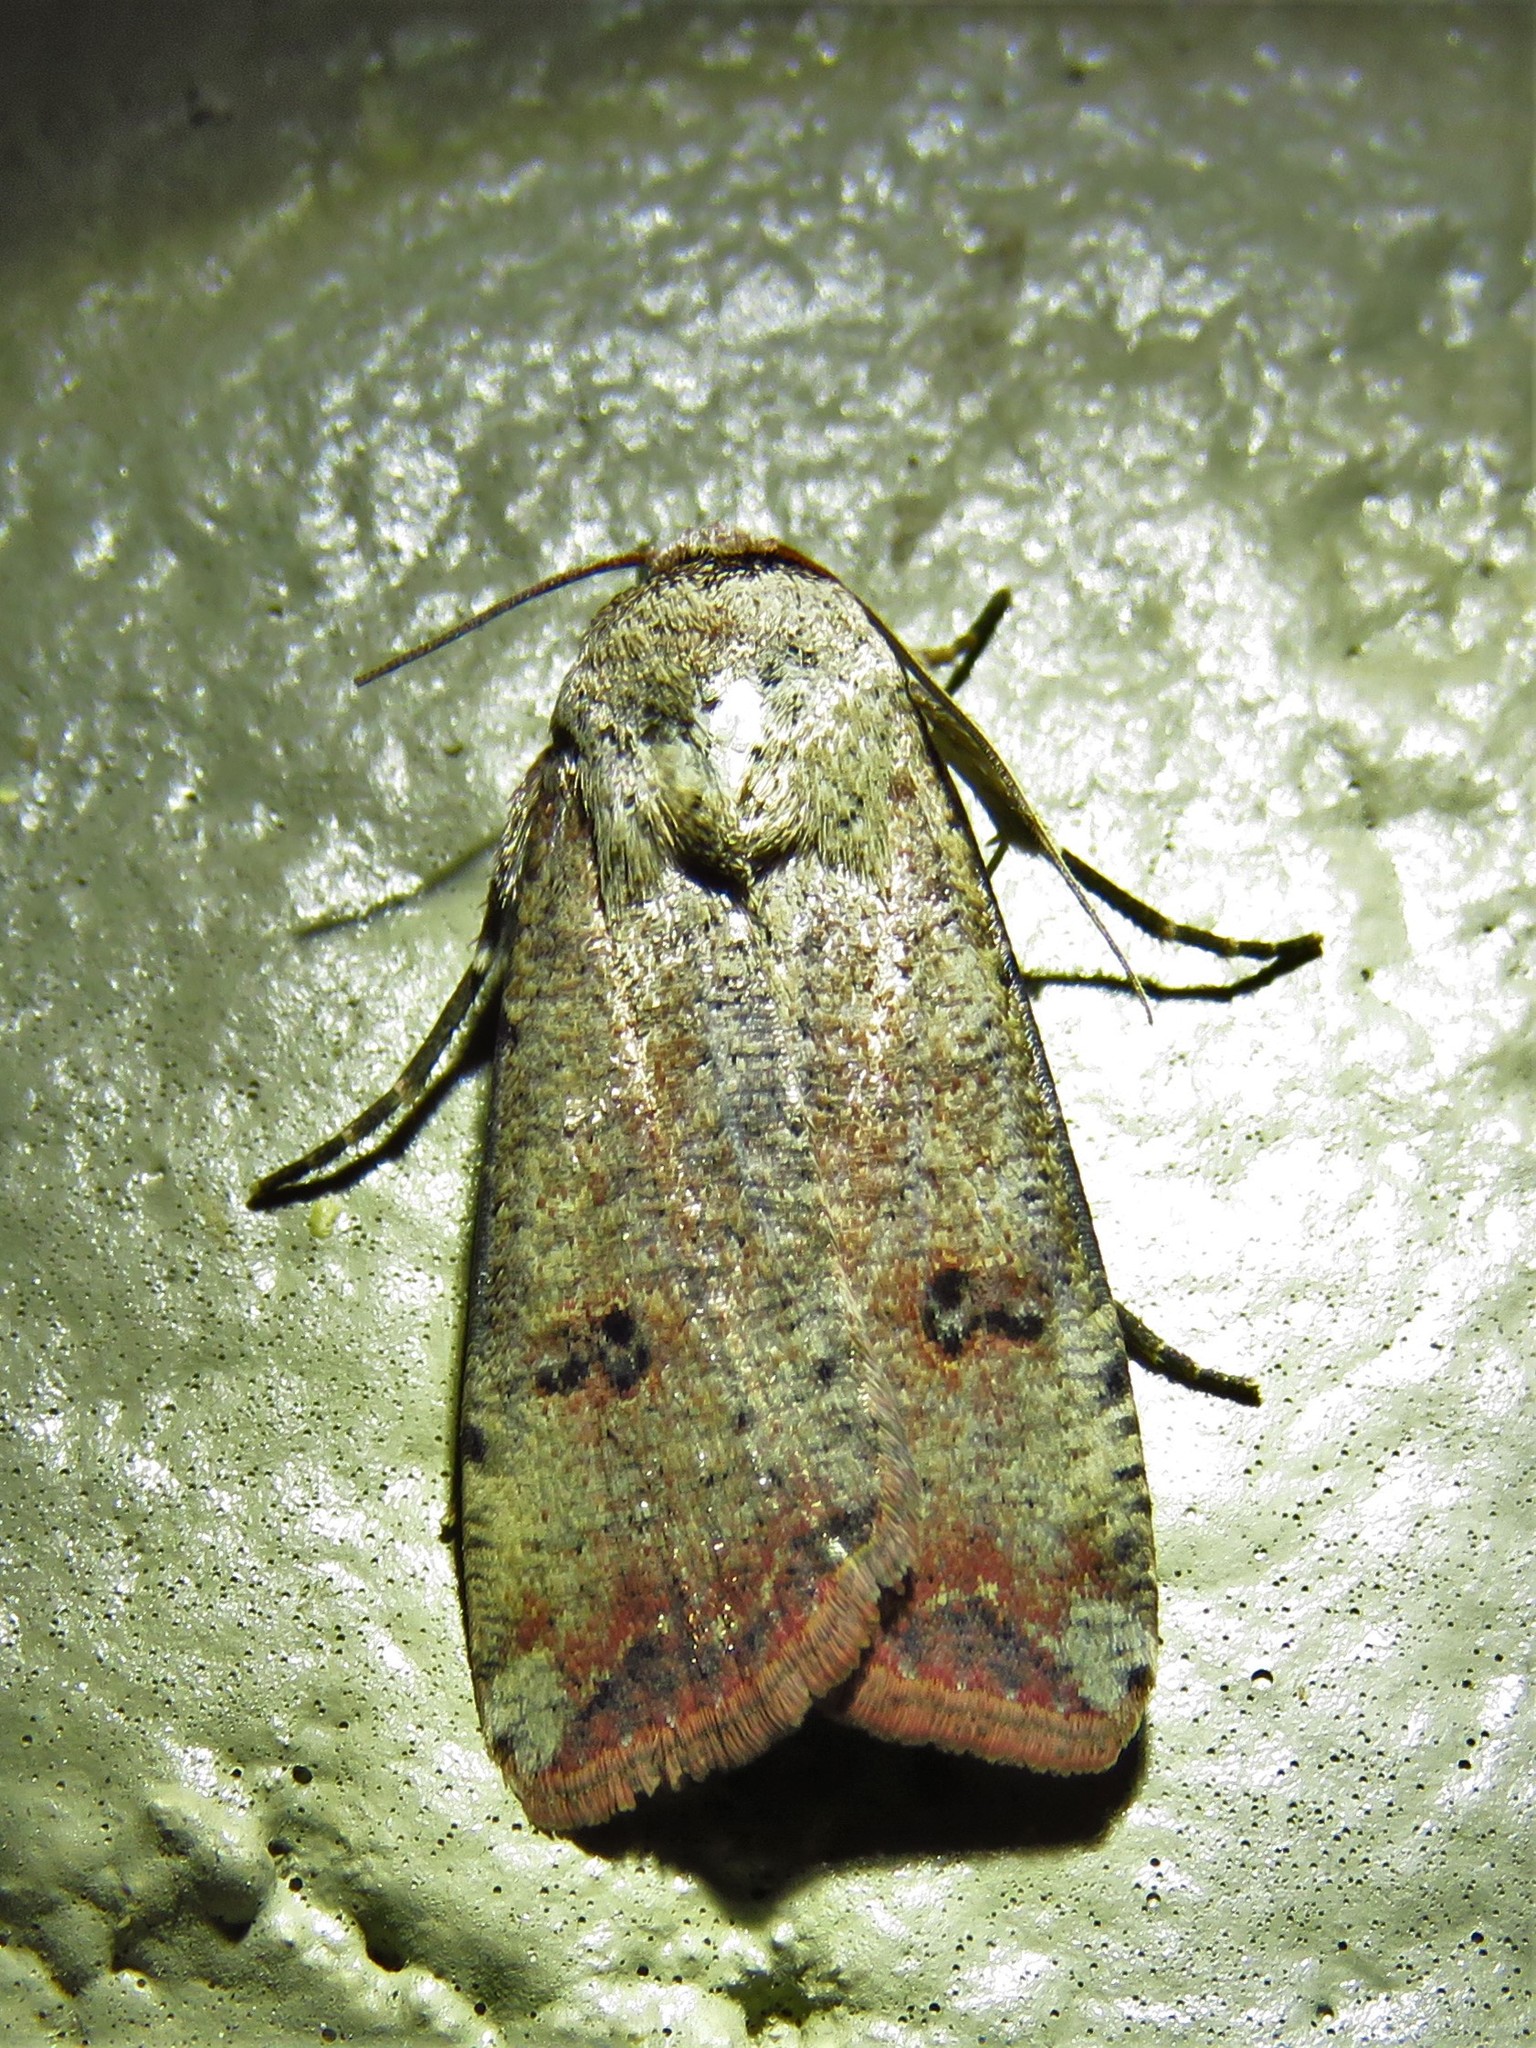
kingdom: Animalia
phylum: Arthropoda
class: Insecta
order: Lepidoptera
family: Noctuidae
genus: Anicla
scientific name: Anicla infecta
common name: Green cutworm
